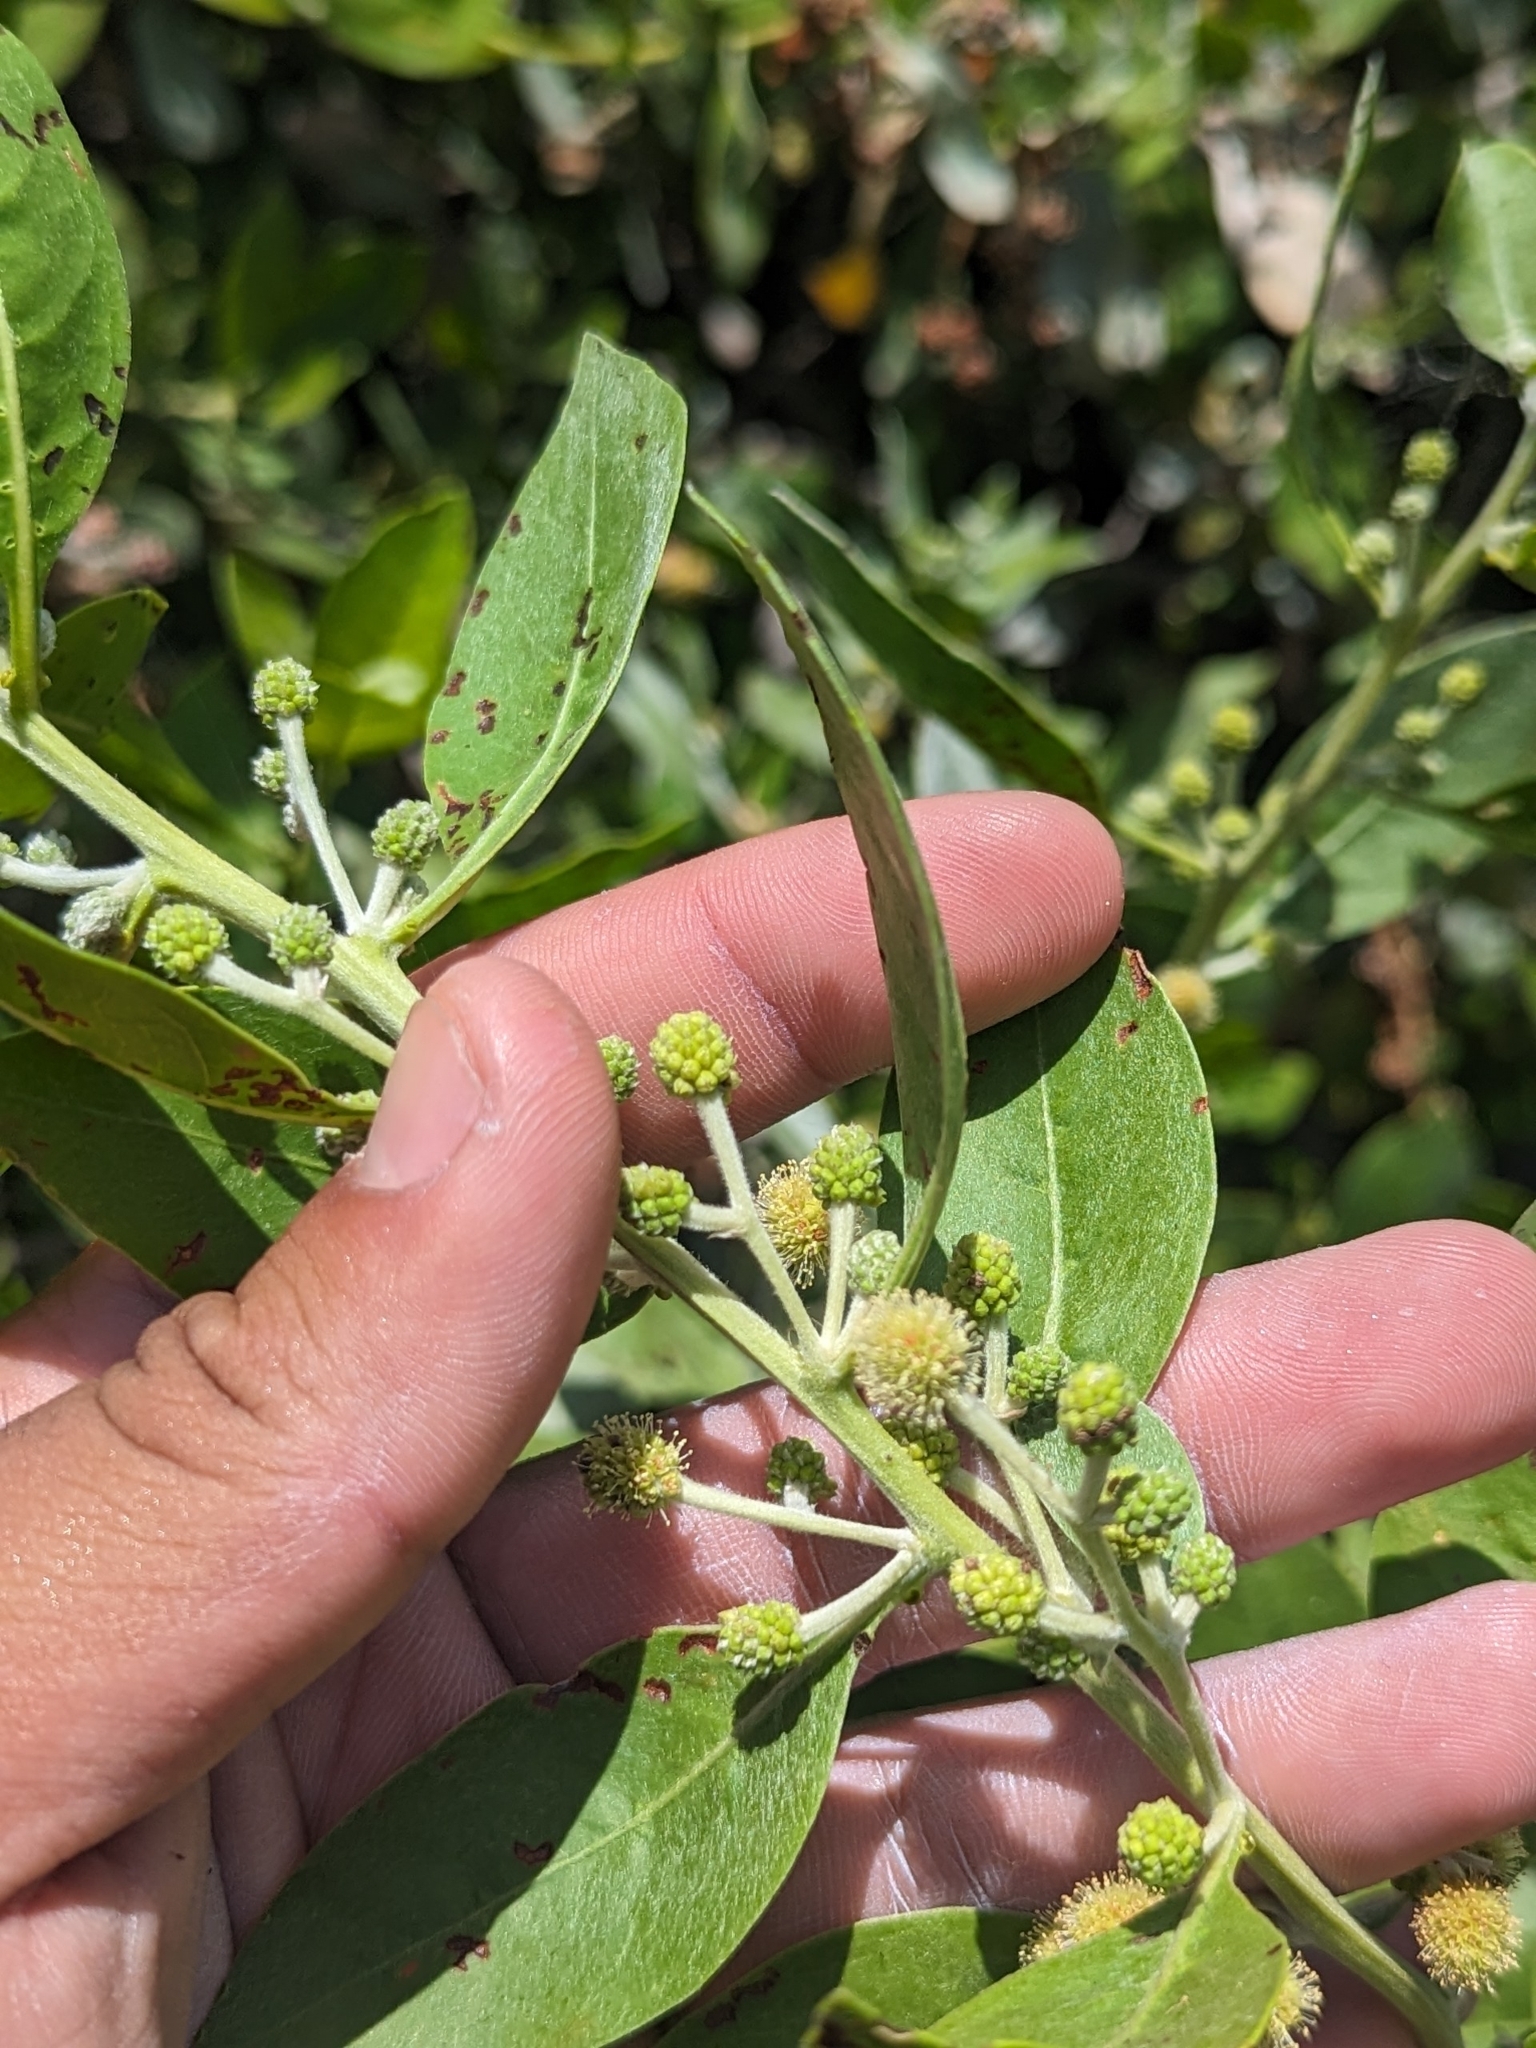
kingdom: Plantae
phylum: Tracheophyta
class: Magnoliopsida
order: Myrtales
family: Combretaceae
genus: Conocarpus
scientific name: Conocarpus erectus
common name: Button mangrove
